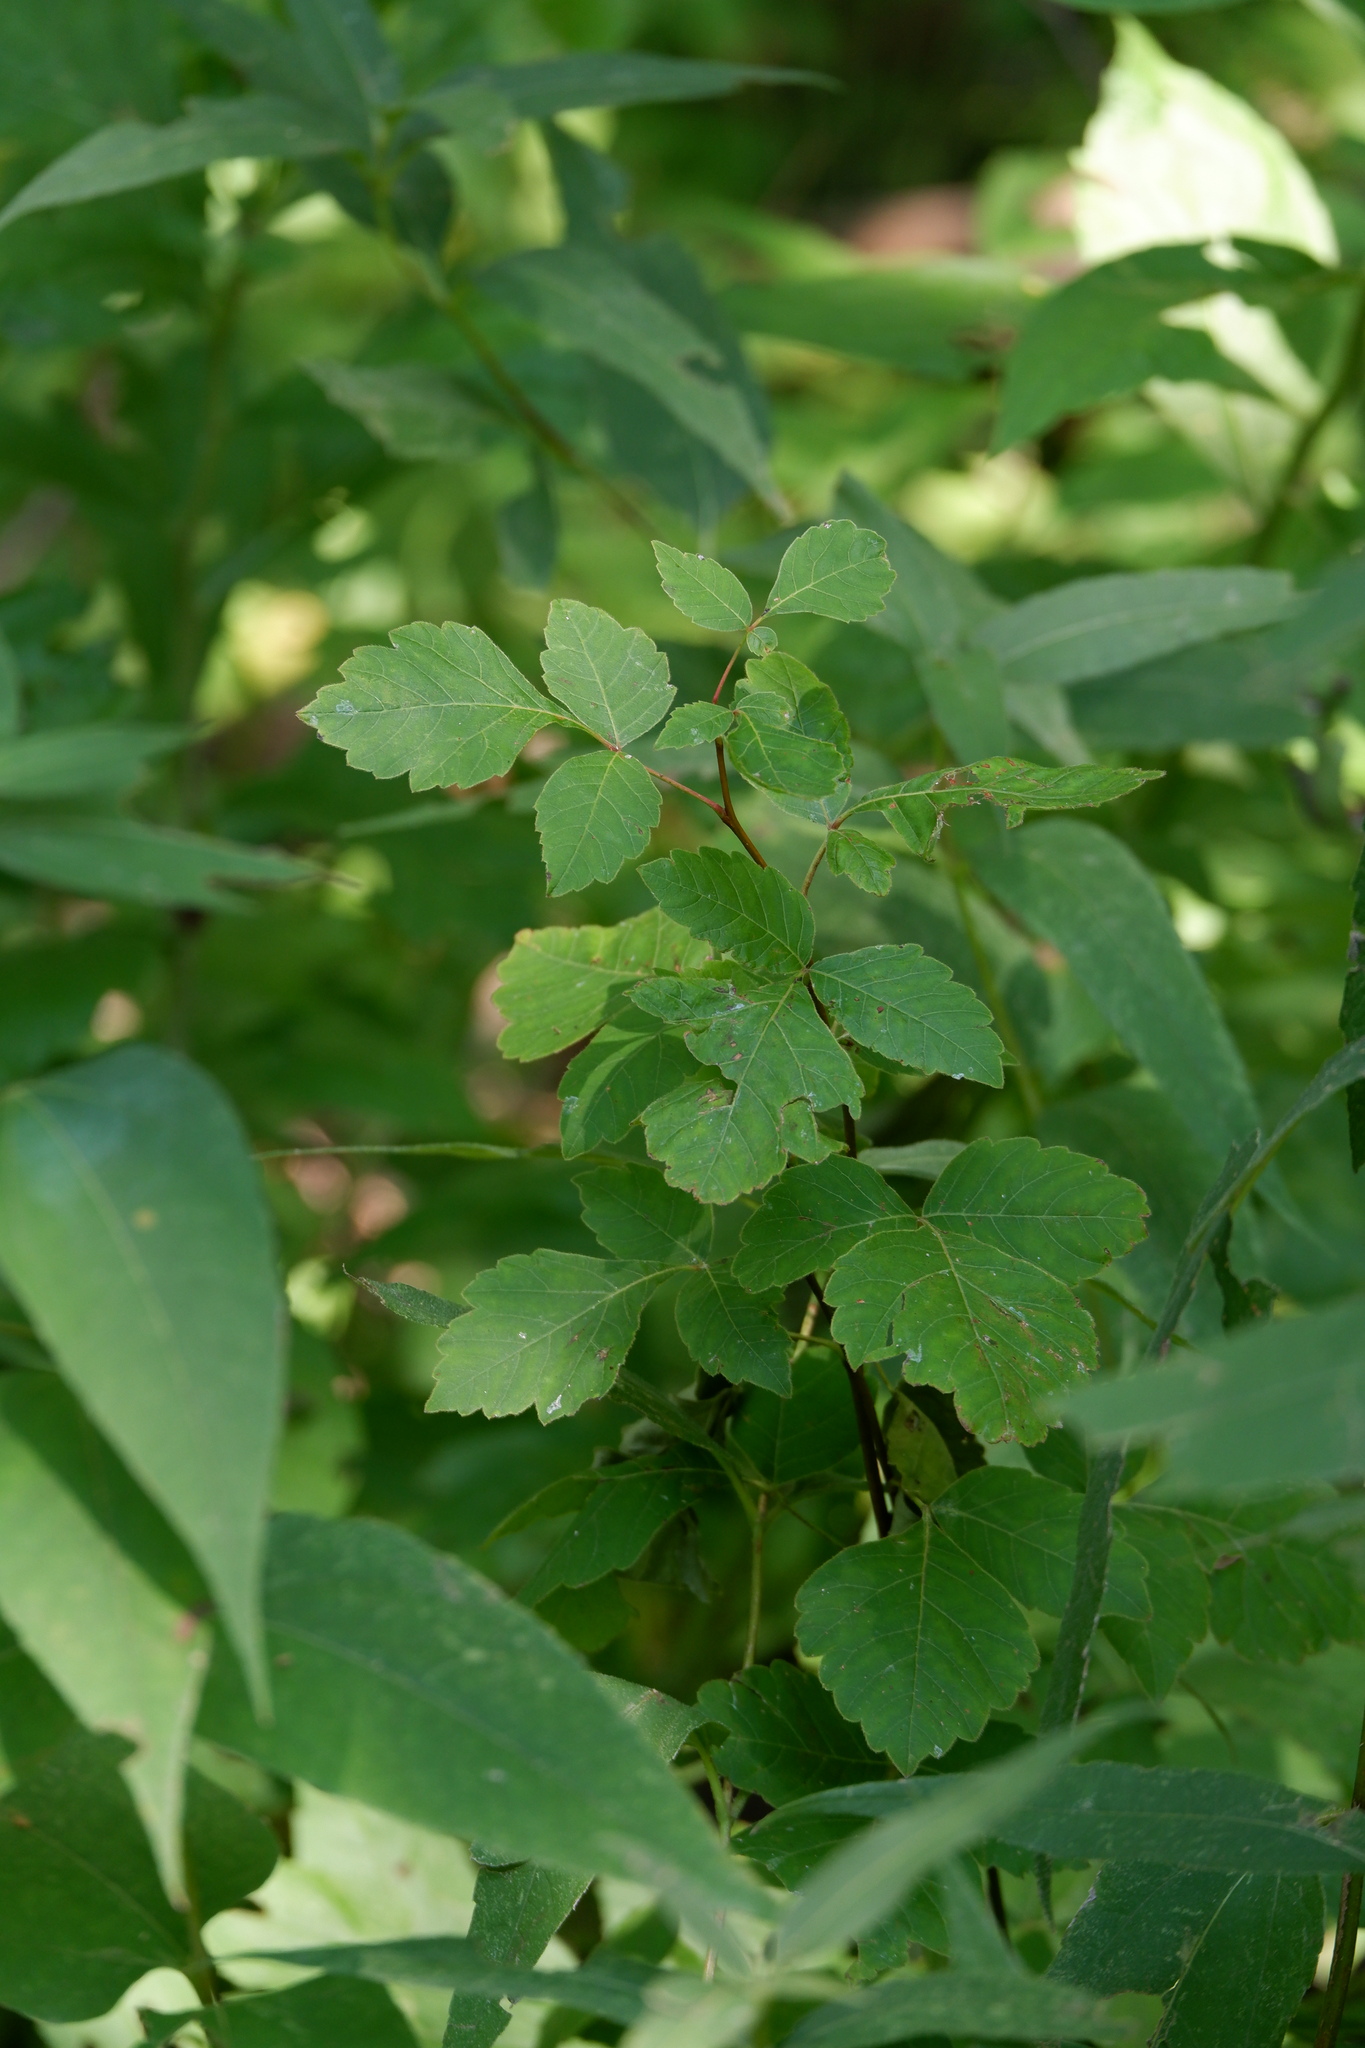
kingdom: Plantae
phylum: Tracheophyta
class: Magnoliopsida
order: Sapindales
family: Anacardiaceae
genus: Rhus
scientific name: Rhus aromatica
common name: Aromatic sumac
